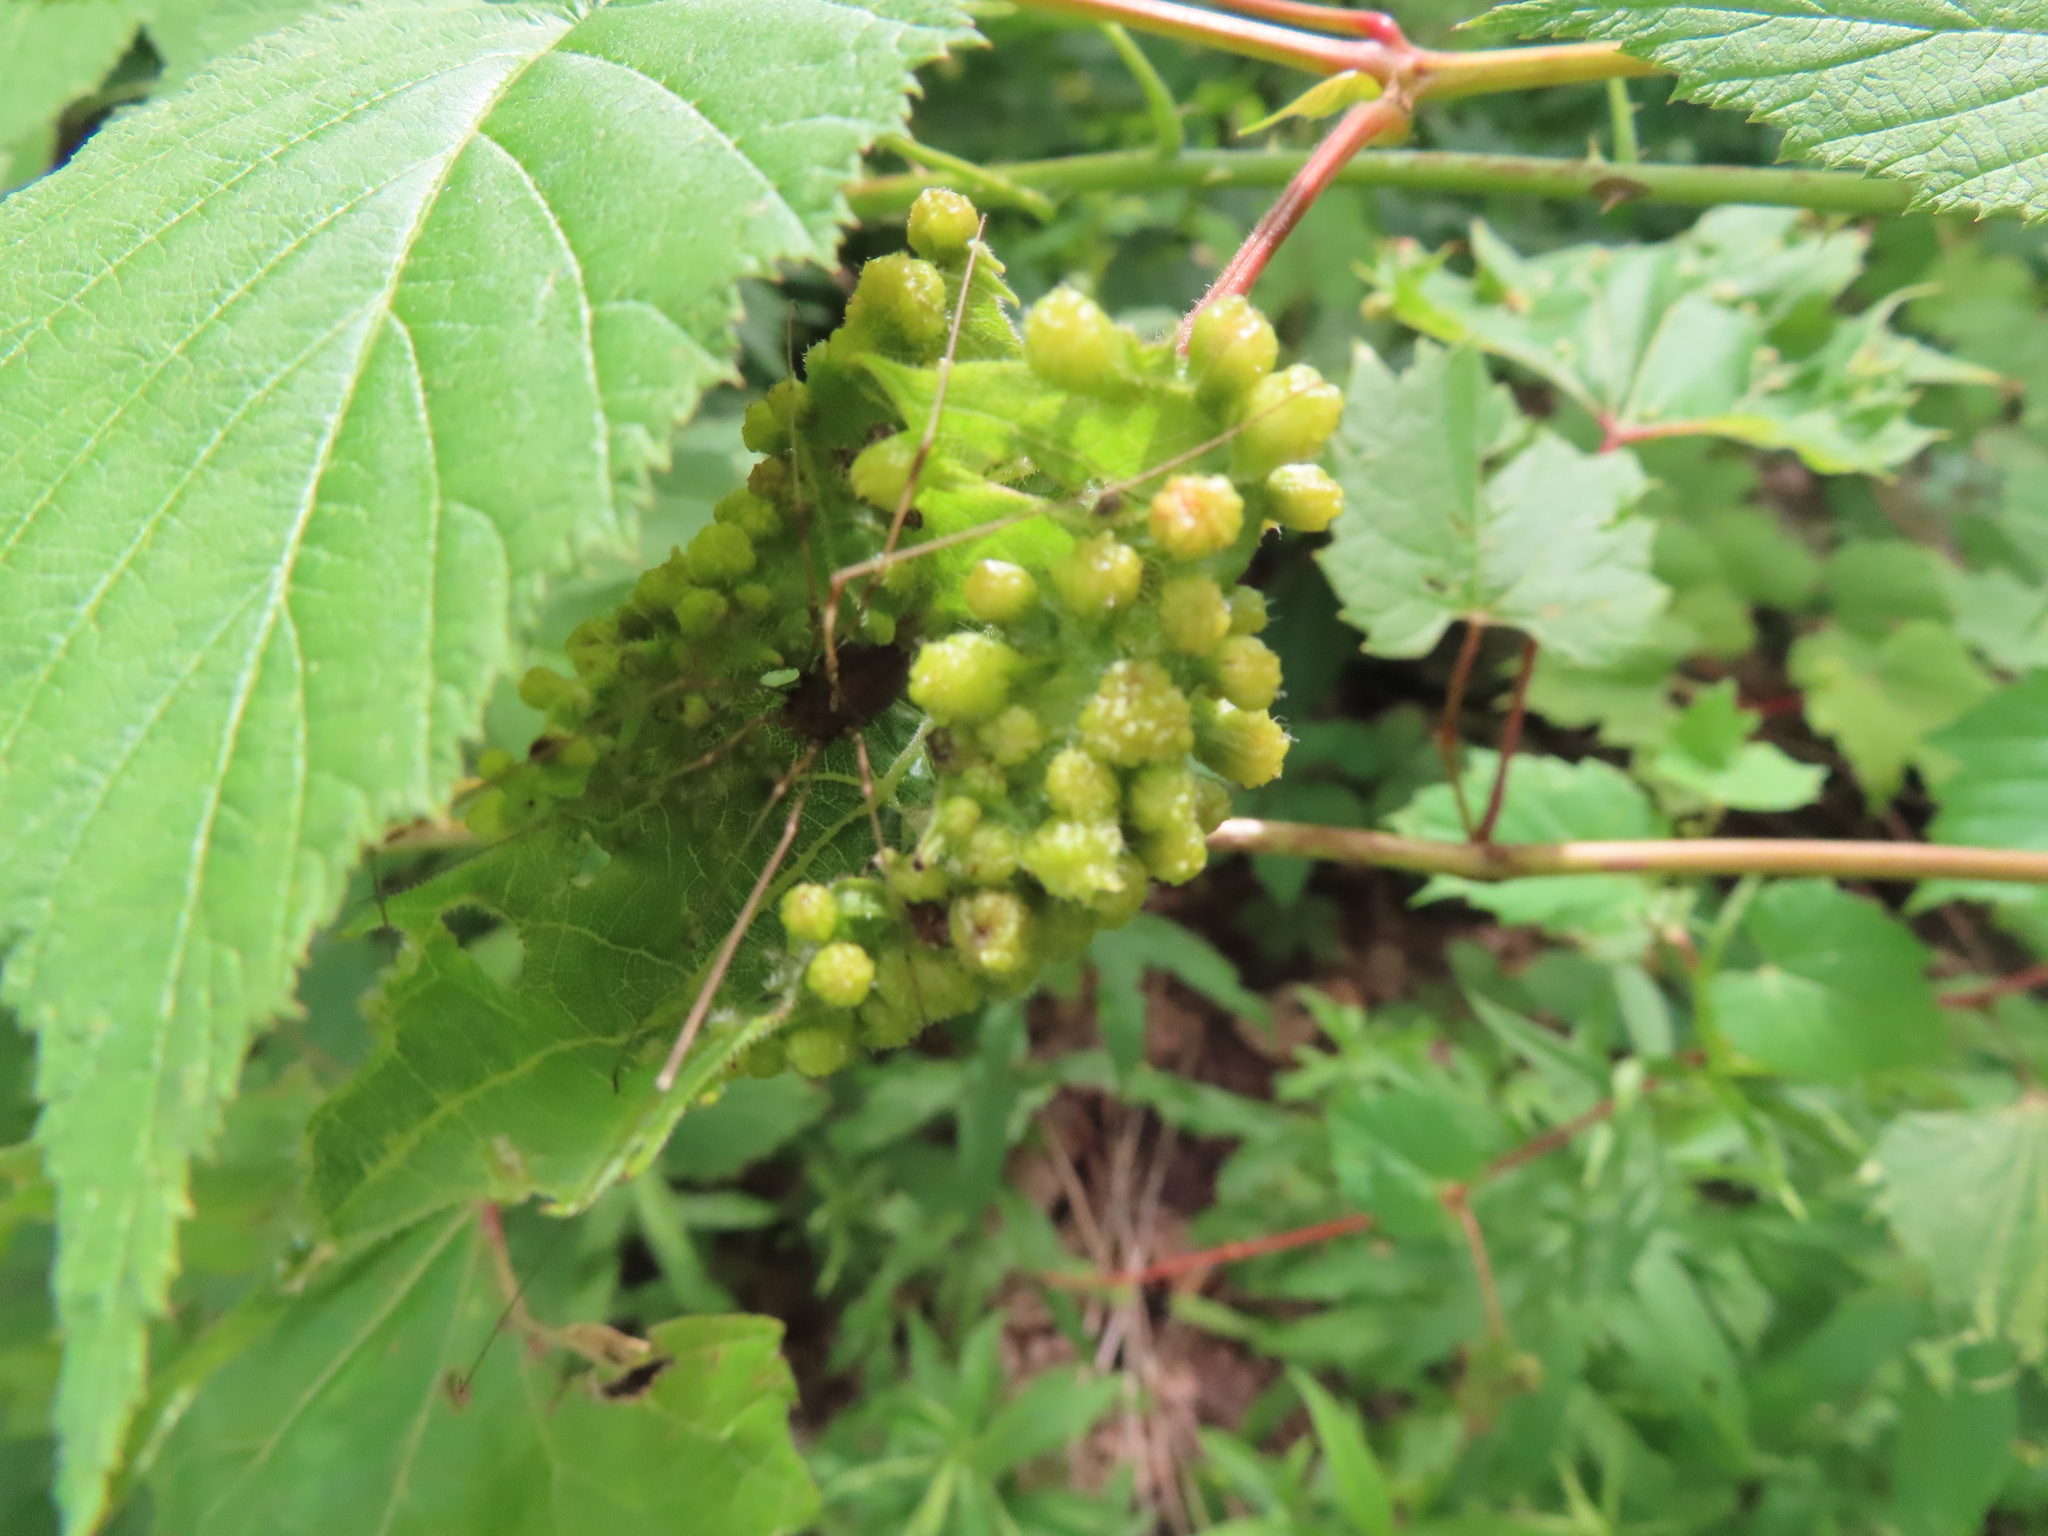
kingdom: Animalia
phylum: Arthropoda
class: Insecta
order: Hemiptera
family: Phylloxeridae
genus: Daktulosphaira
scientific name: Daktulosphaira vitifoliae
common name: Grape phylloxera
